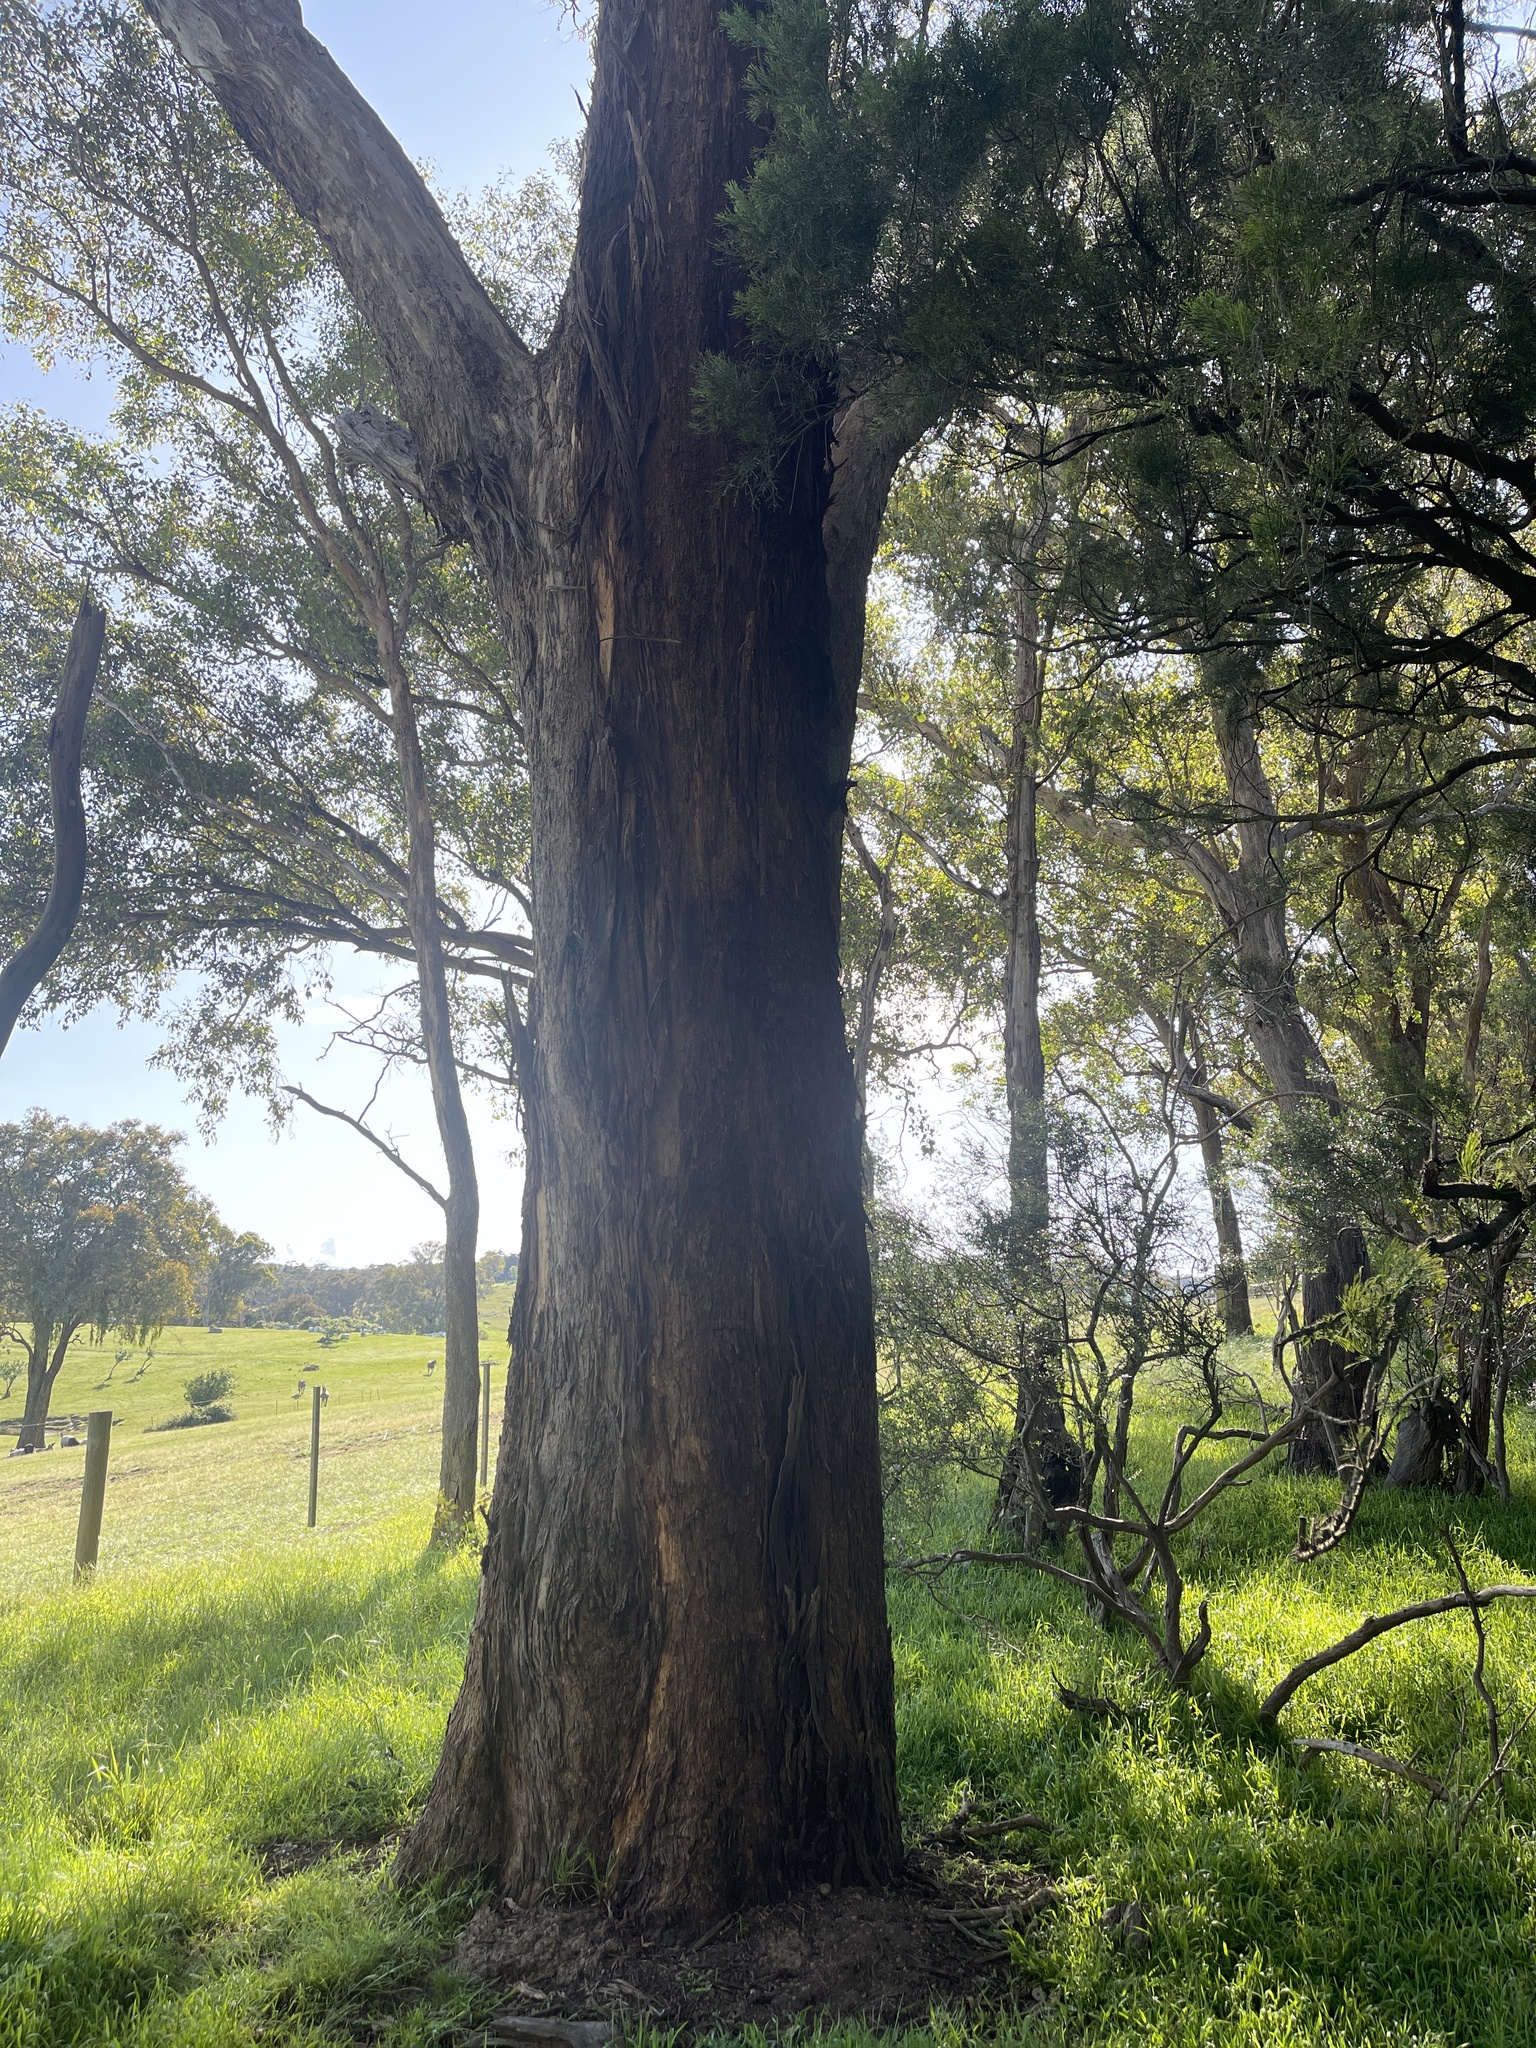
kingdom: Plantae
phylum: Tracheophyta
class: Magnoliopsida
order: Myrtales
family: Myrtaceae
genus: Eucalyptus
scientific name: Eucalyptus melliodora
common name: Yellow ironbox
